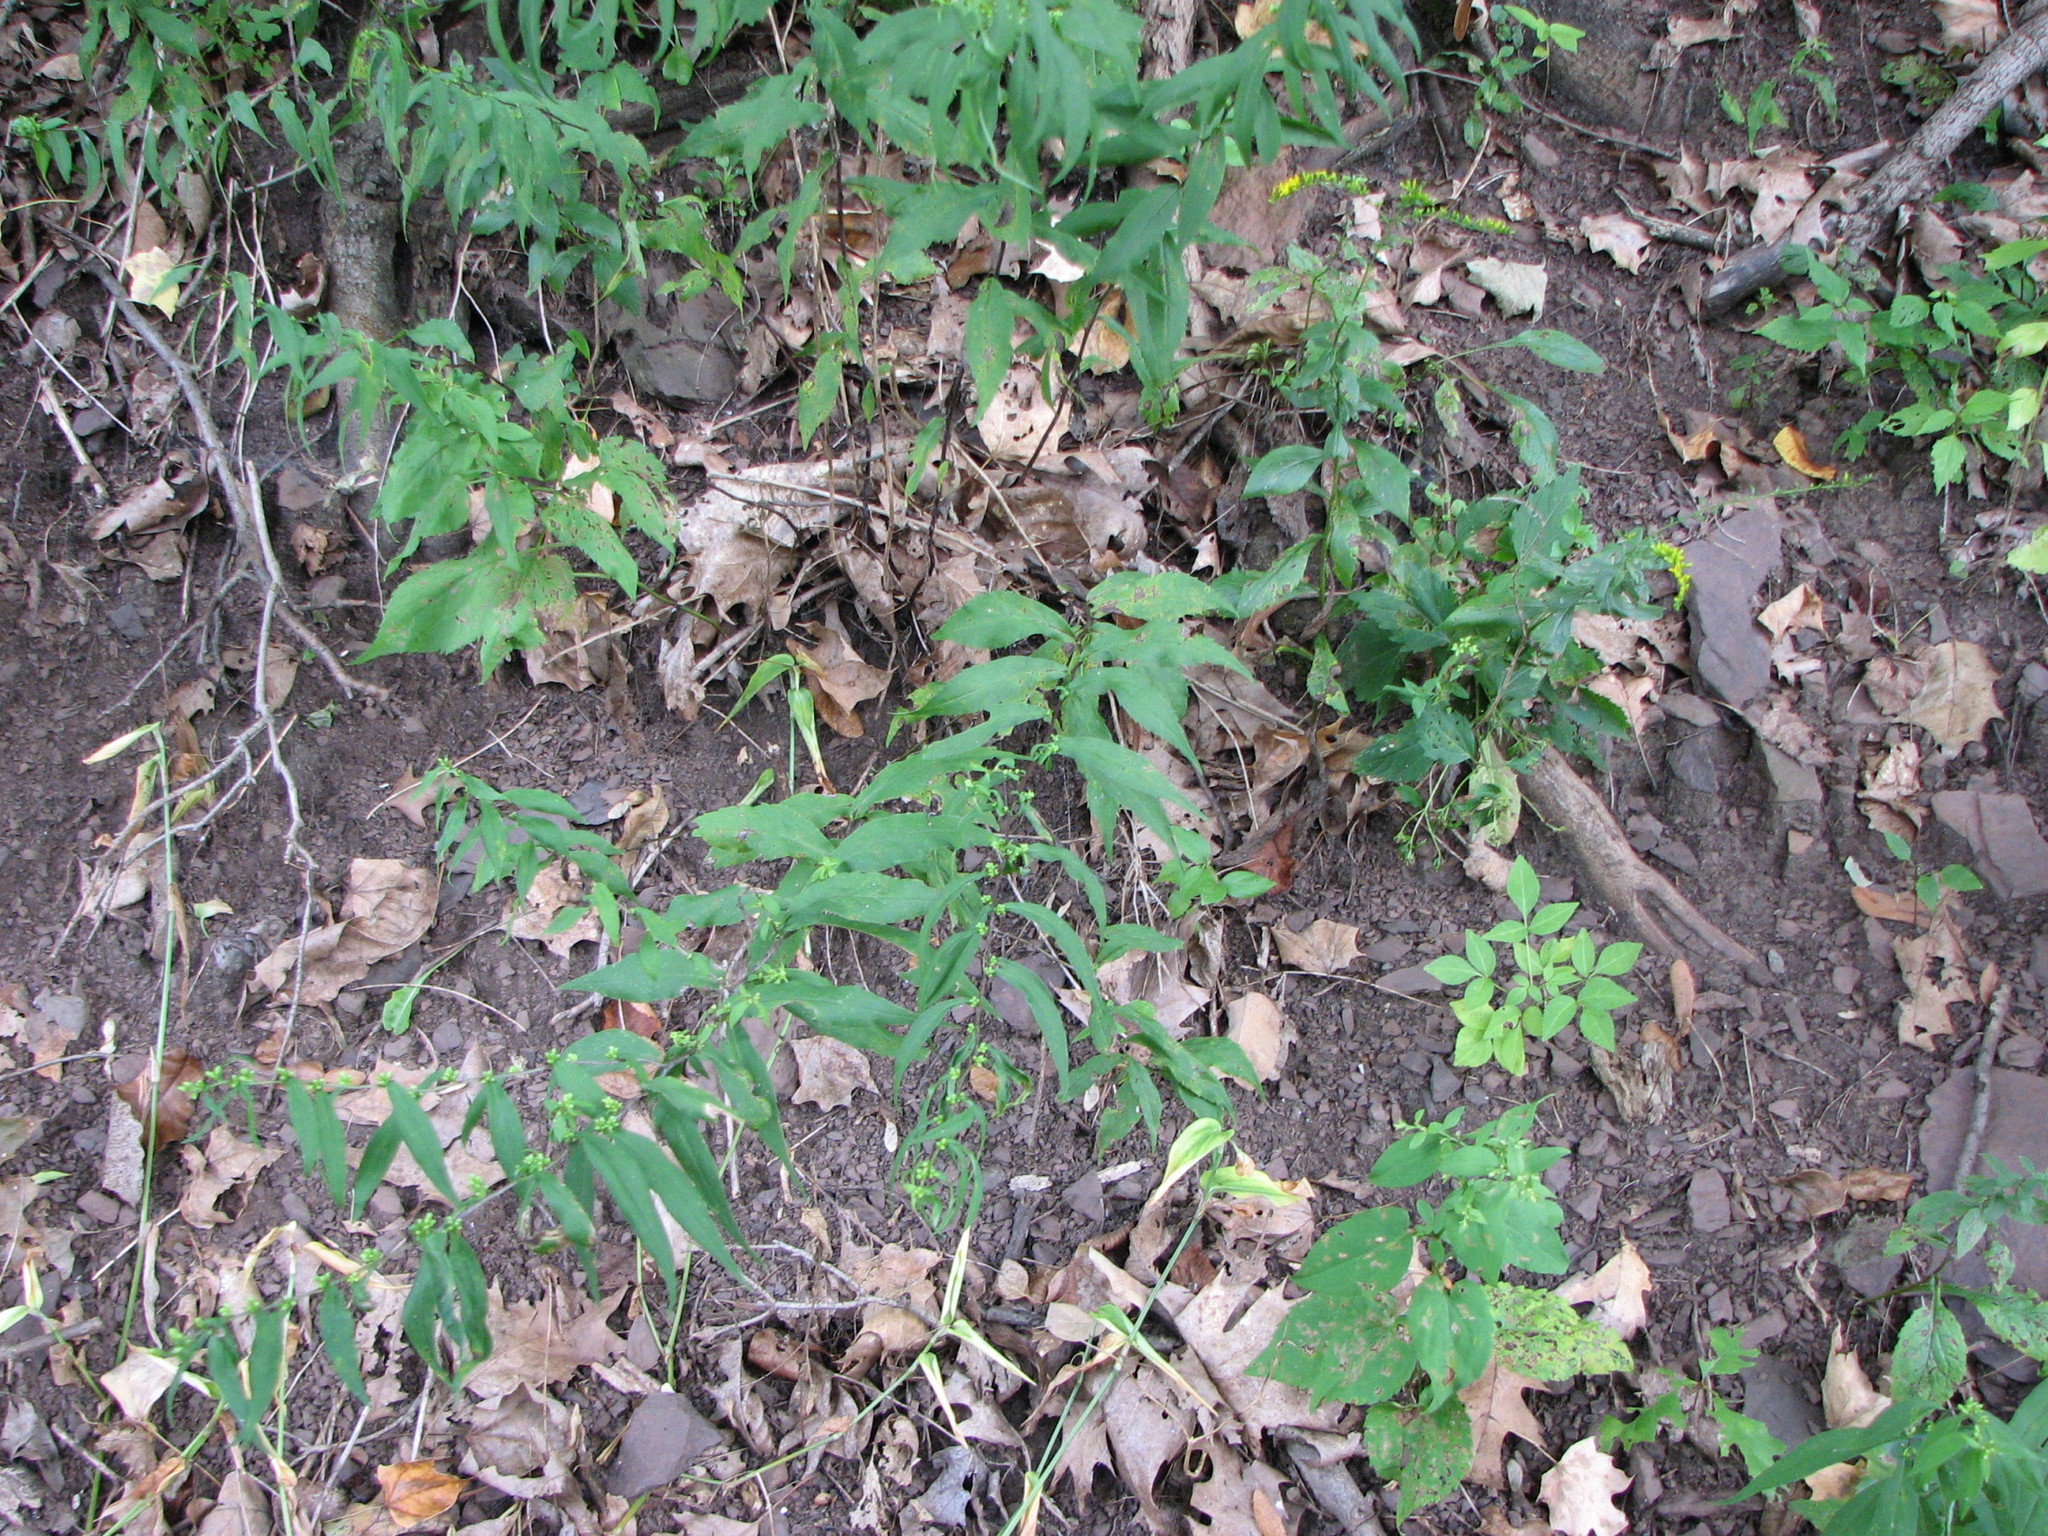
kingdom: Plantae
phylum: Tracheophyta
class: Magnoliopsida
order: Asterales
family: Asteraceae
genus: Solidago
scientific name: Solidago caesia
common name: Woodland goldenrod
